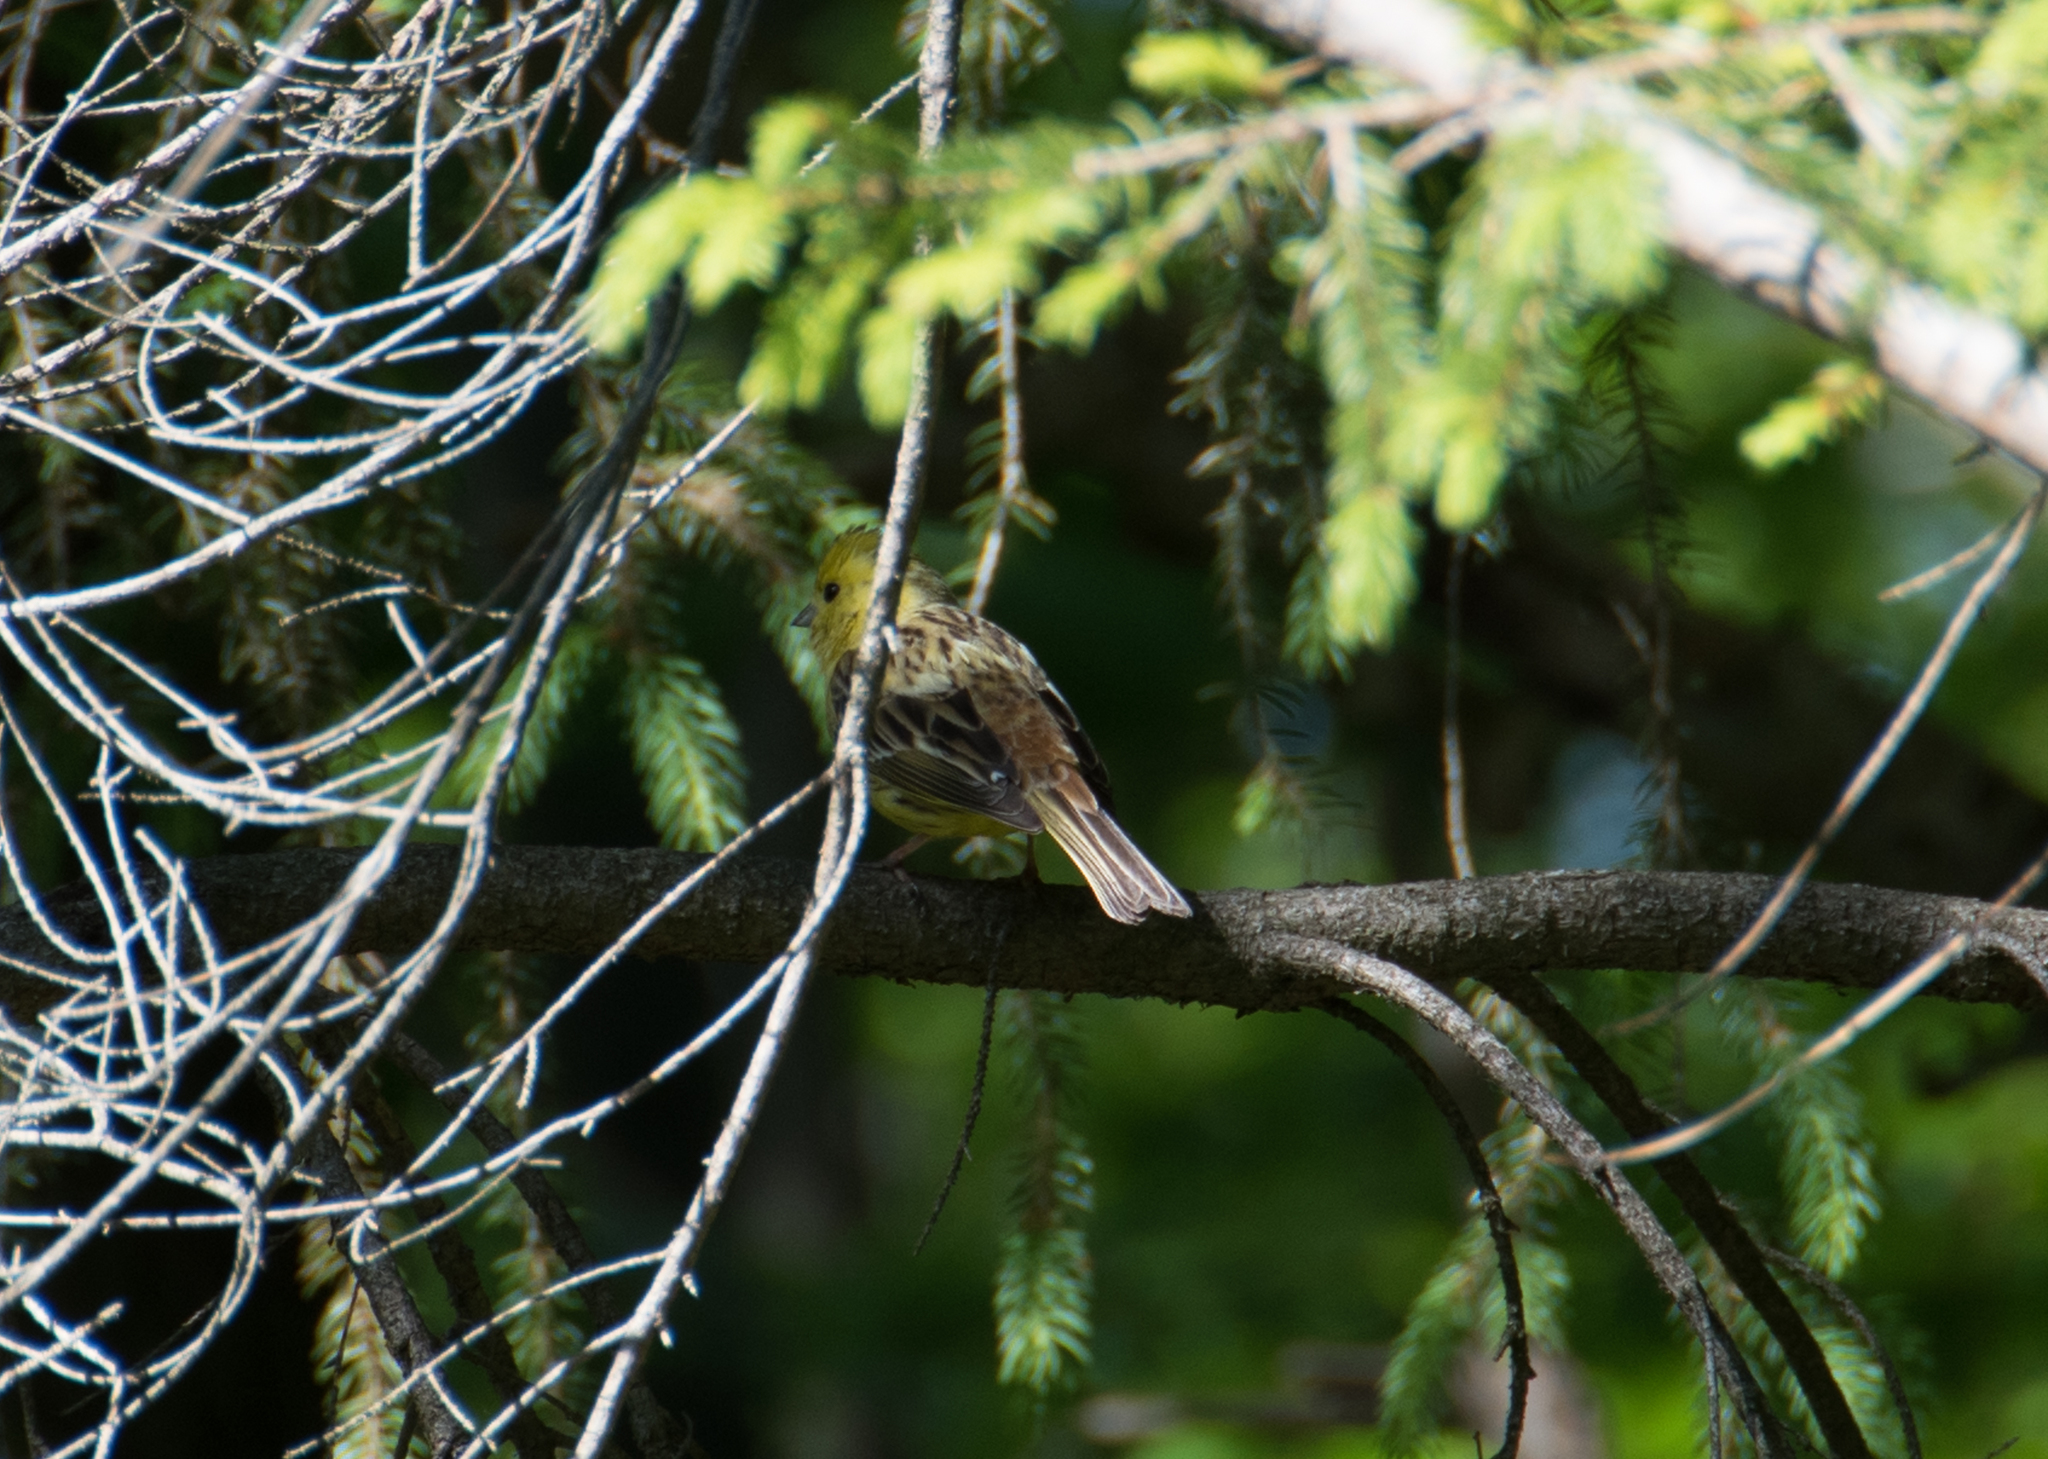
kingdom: Animalia
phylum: Chordata
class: Aves
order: Passeriformes
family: Emberizidae
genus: Emberiza
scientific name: Emberiza citrinella
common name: Yellowhammer
